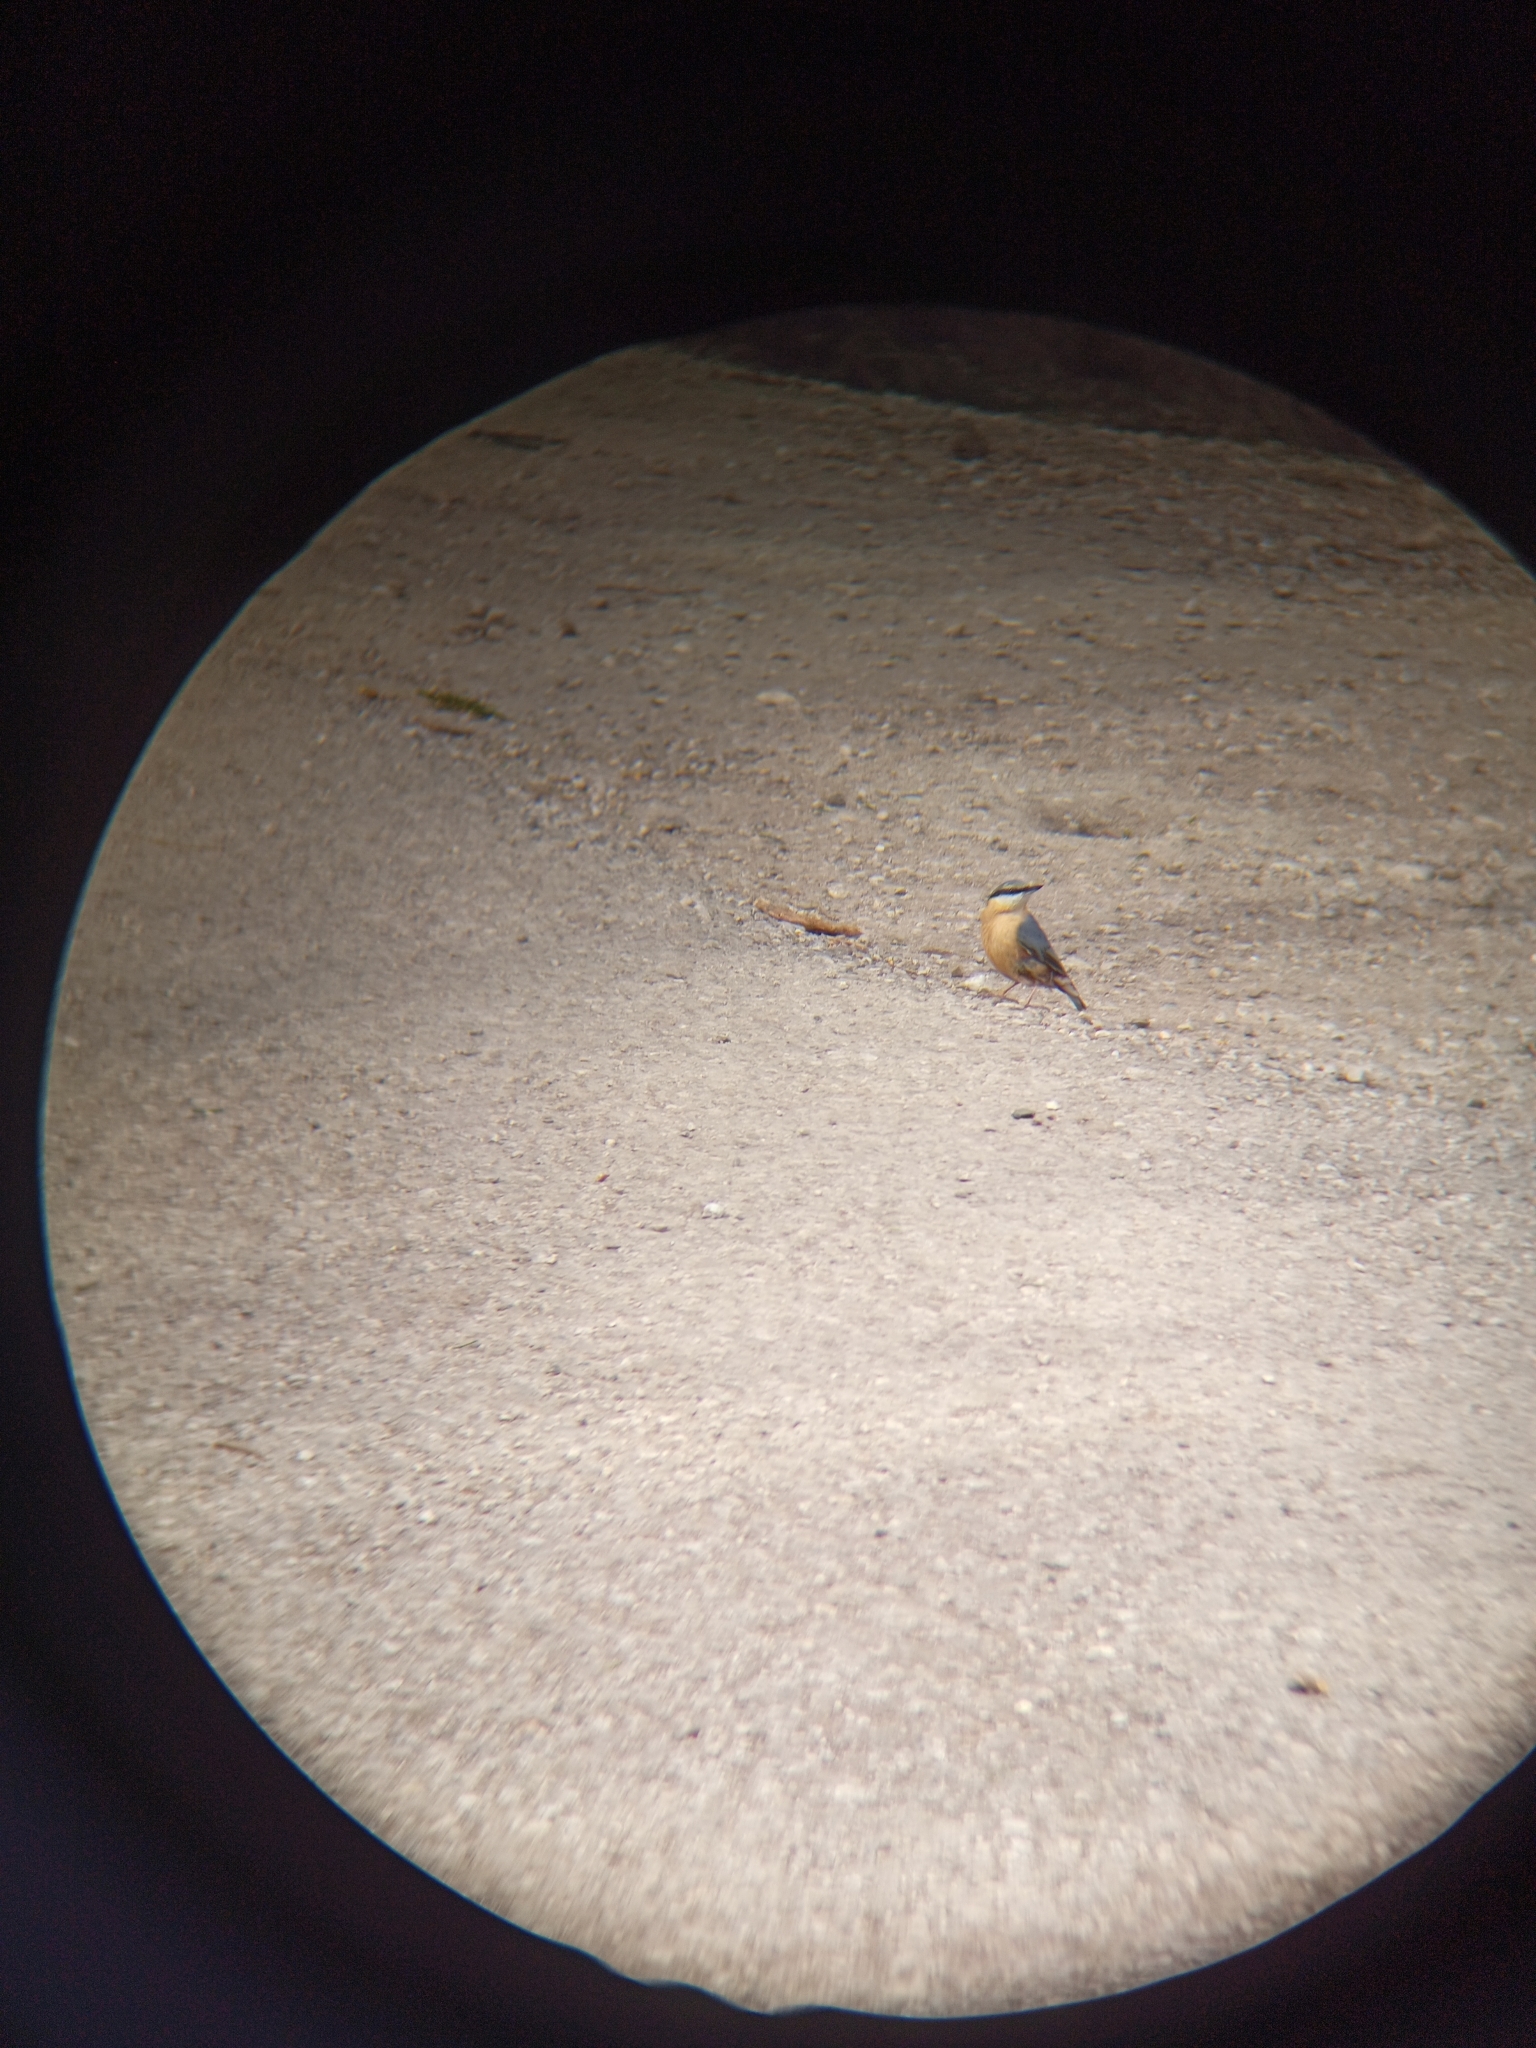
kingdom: Animalia
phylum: Chordata
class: Aves
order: Passeriformes
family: Sittidae
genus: Sitta
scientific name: Sitta europaea
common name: Eurasian nuthatch
